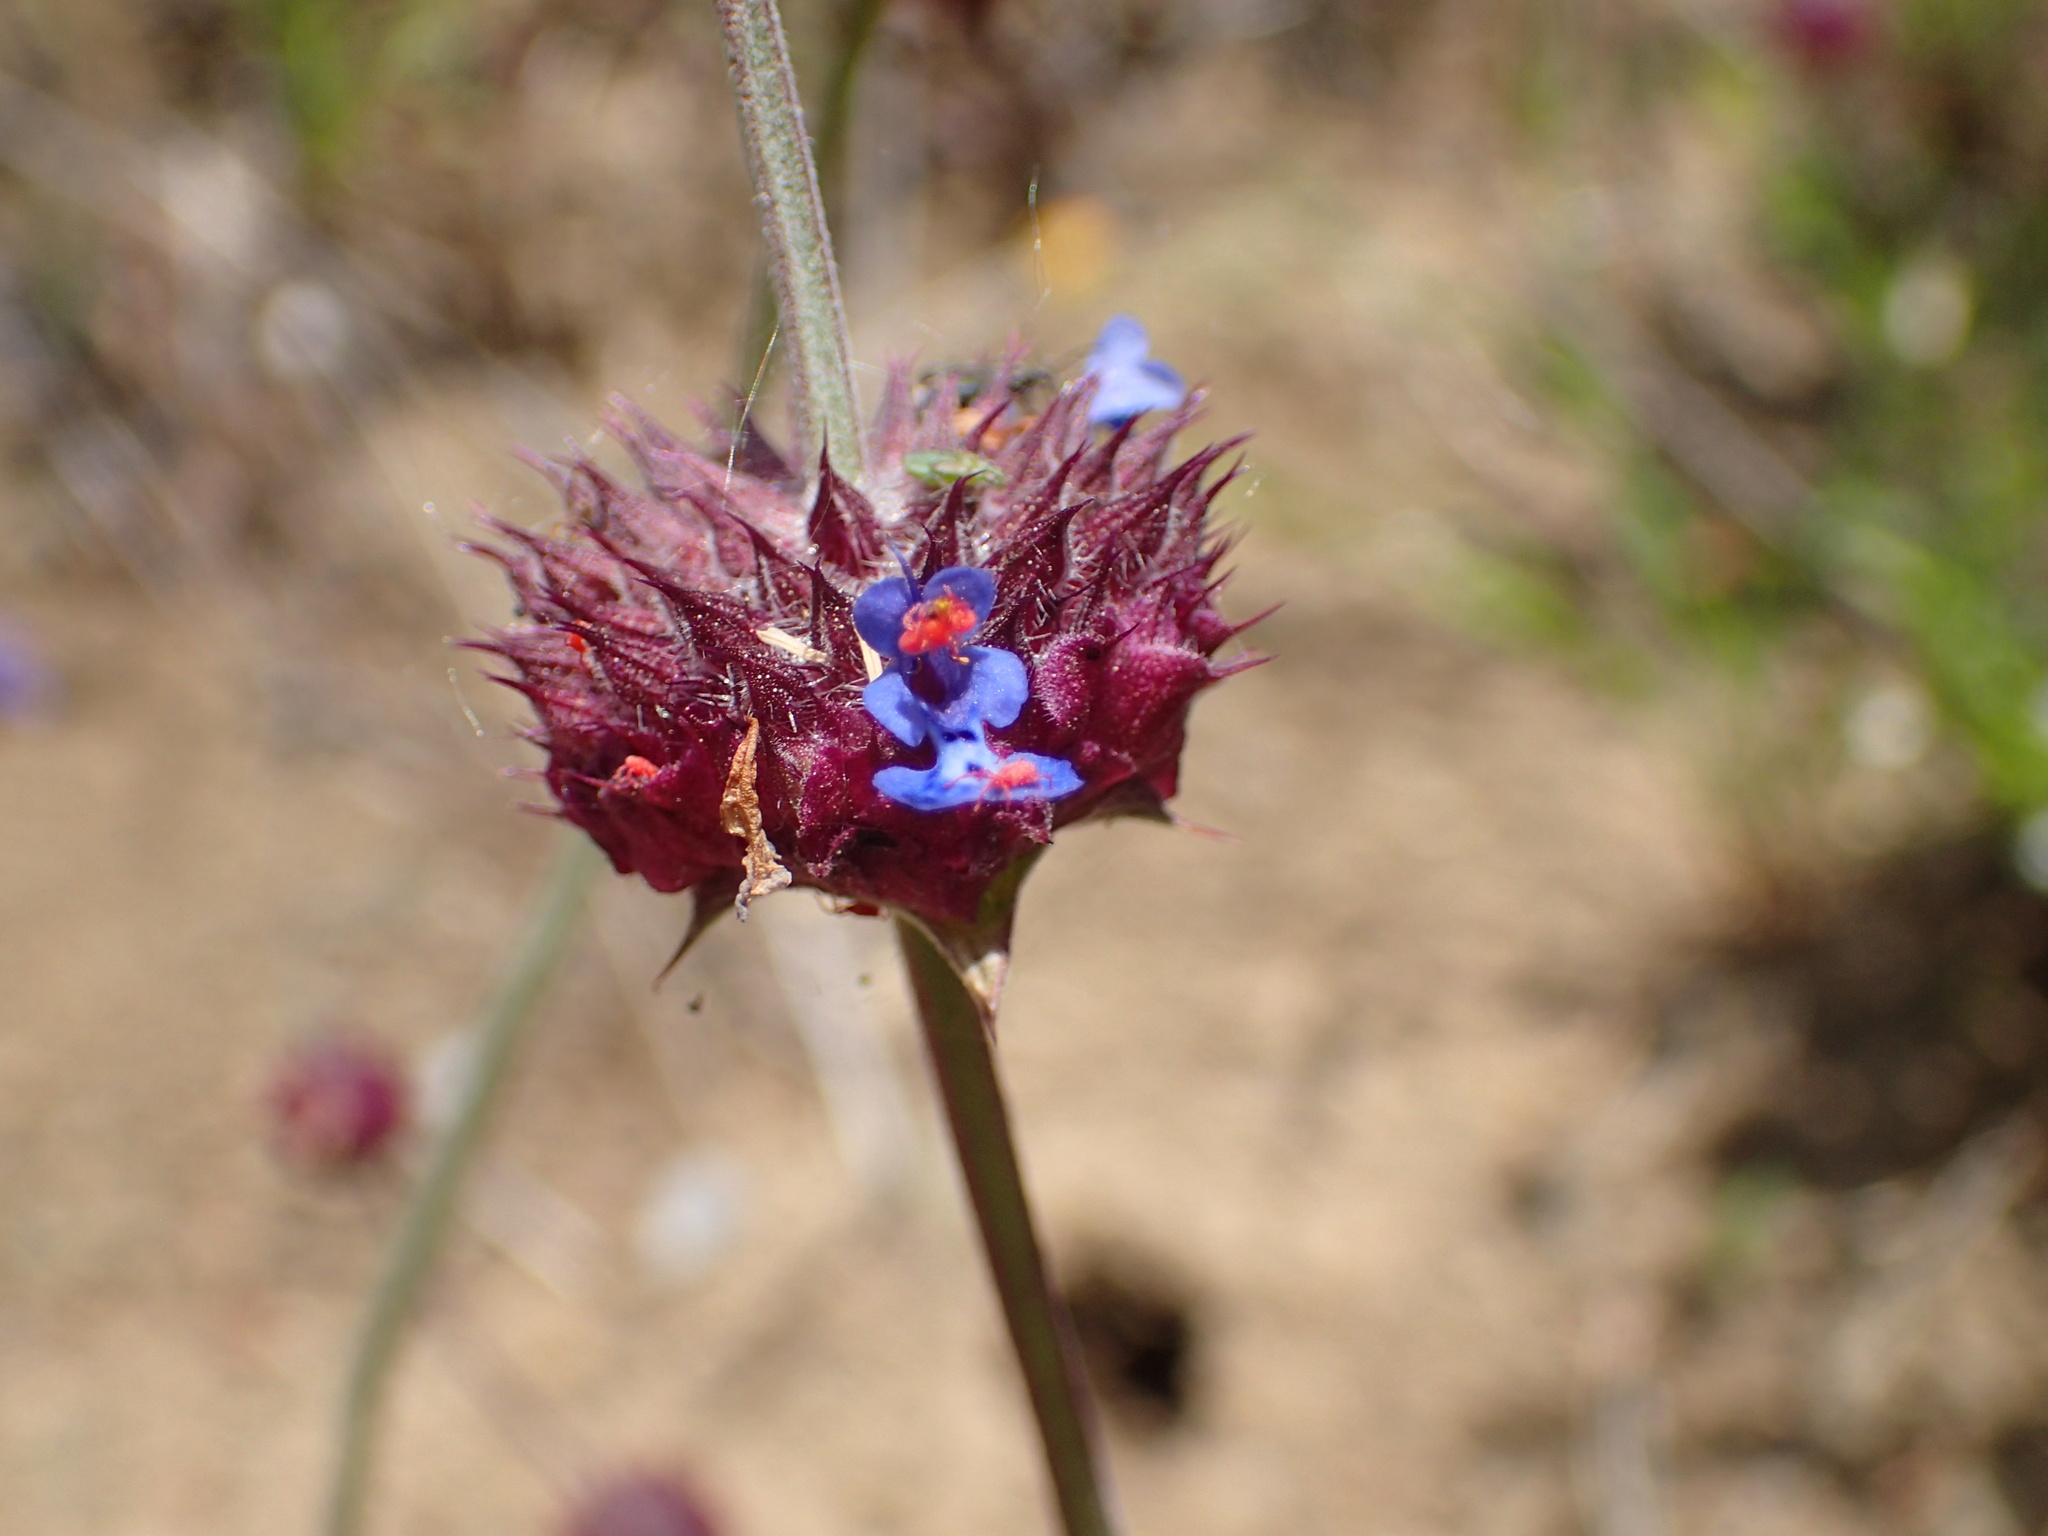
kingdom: Plantae
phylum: Tracheophyta
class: Magnoliopsida
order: Lamiales
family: Lamiaceae
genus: Salvia
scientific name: Salvia columbariae
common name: Chia
